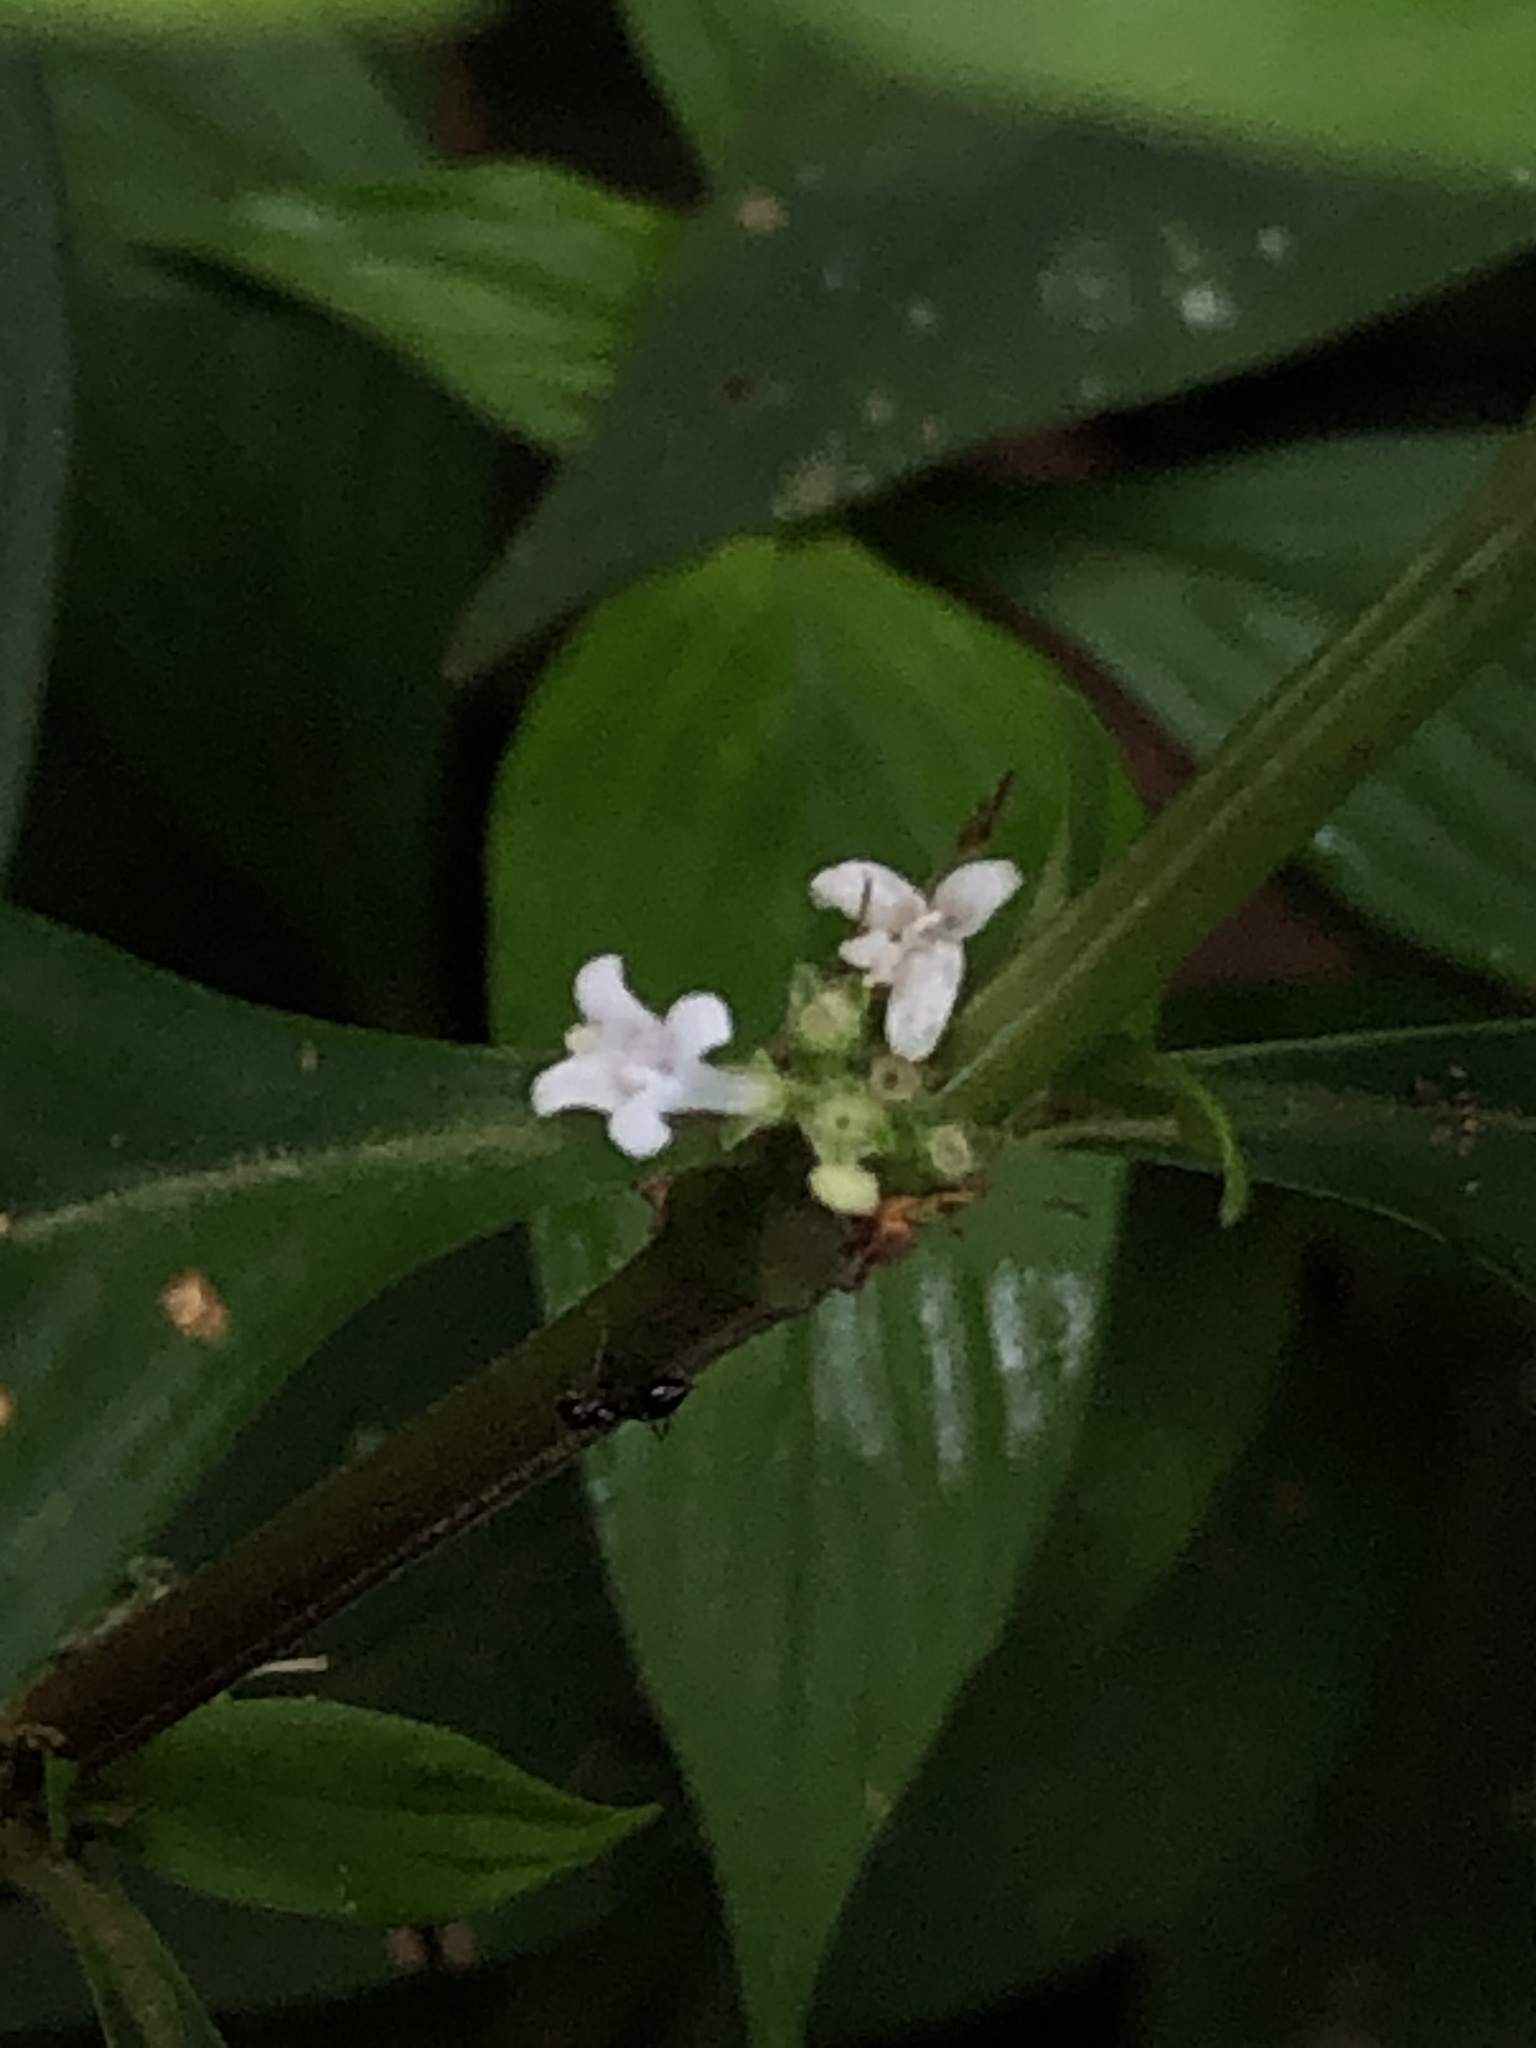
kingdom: Plantae
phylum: Tracheophyta
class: Magnoliopsida
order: Gentianales
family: Rubiaceae
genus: Spermacoce
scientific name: Spermacoce ocymifolia
